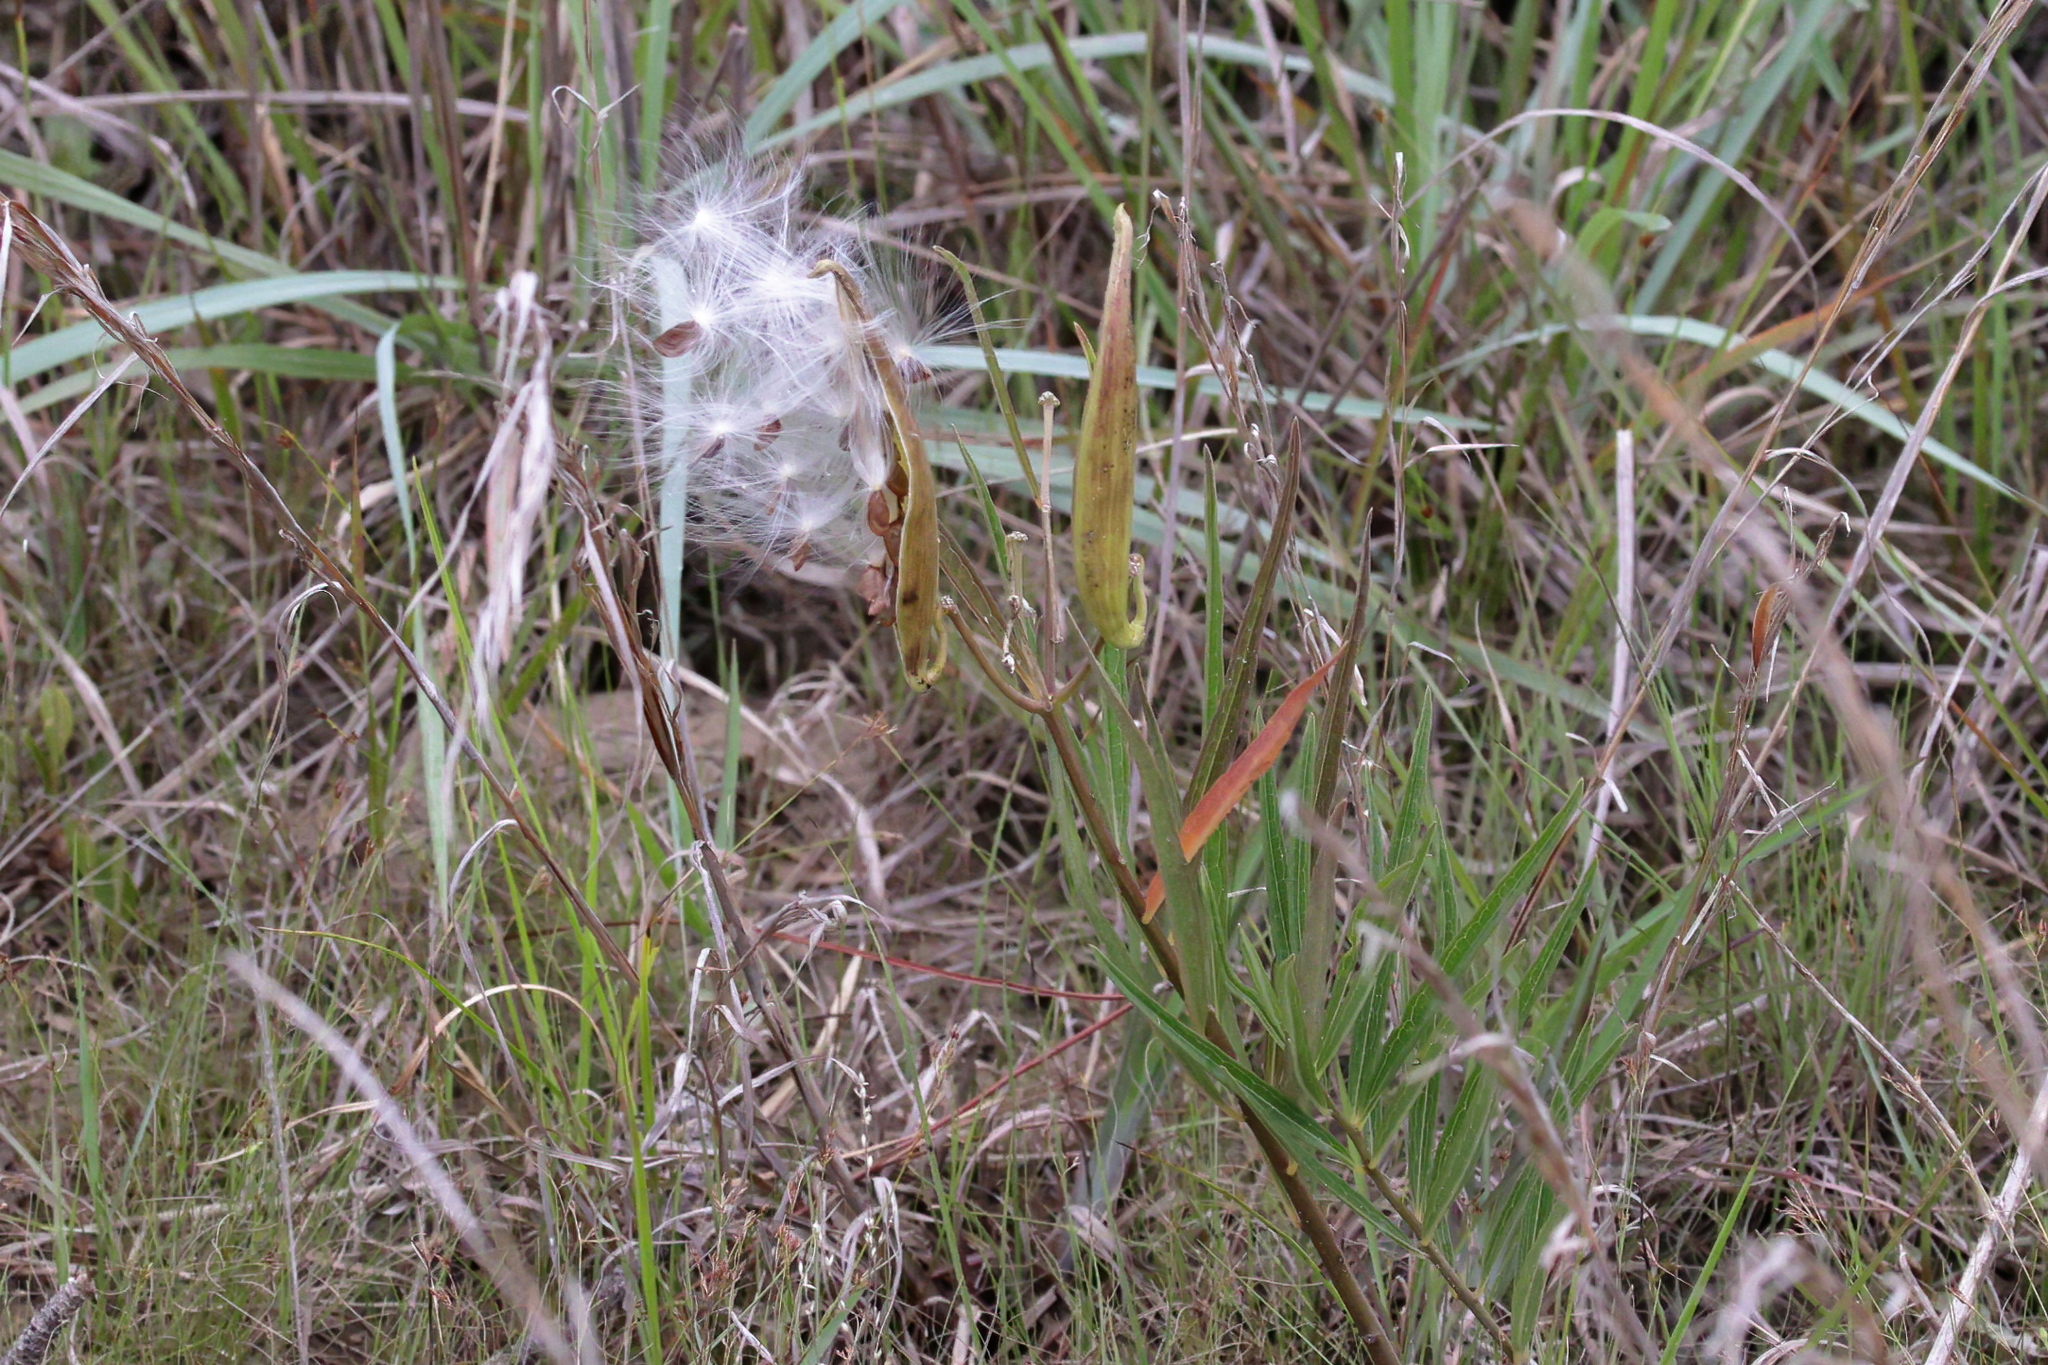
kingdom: Plantae
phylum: Tracheophyta
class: Magnoliopsida
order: Gentianales
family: Apocynaceae
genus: Asclepias
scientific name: Asclepias longifolia
